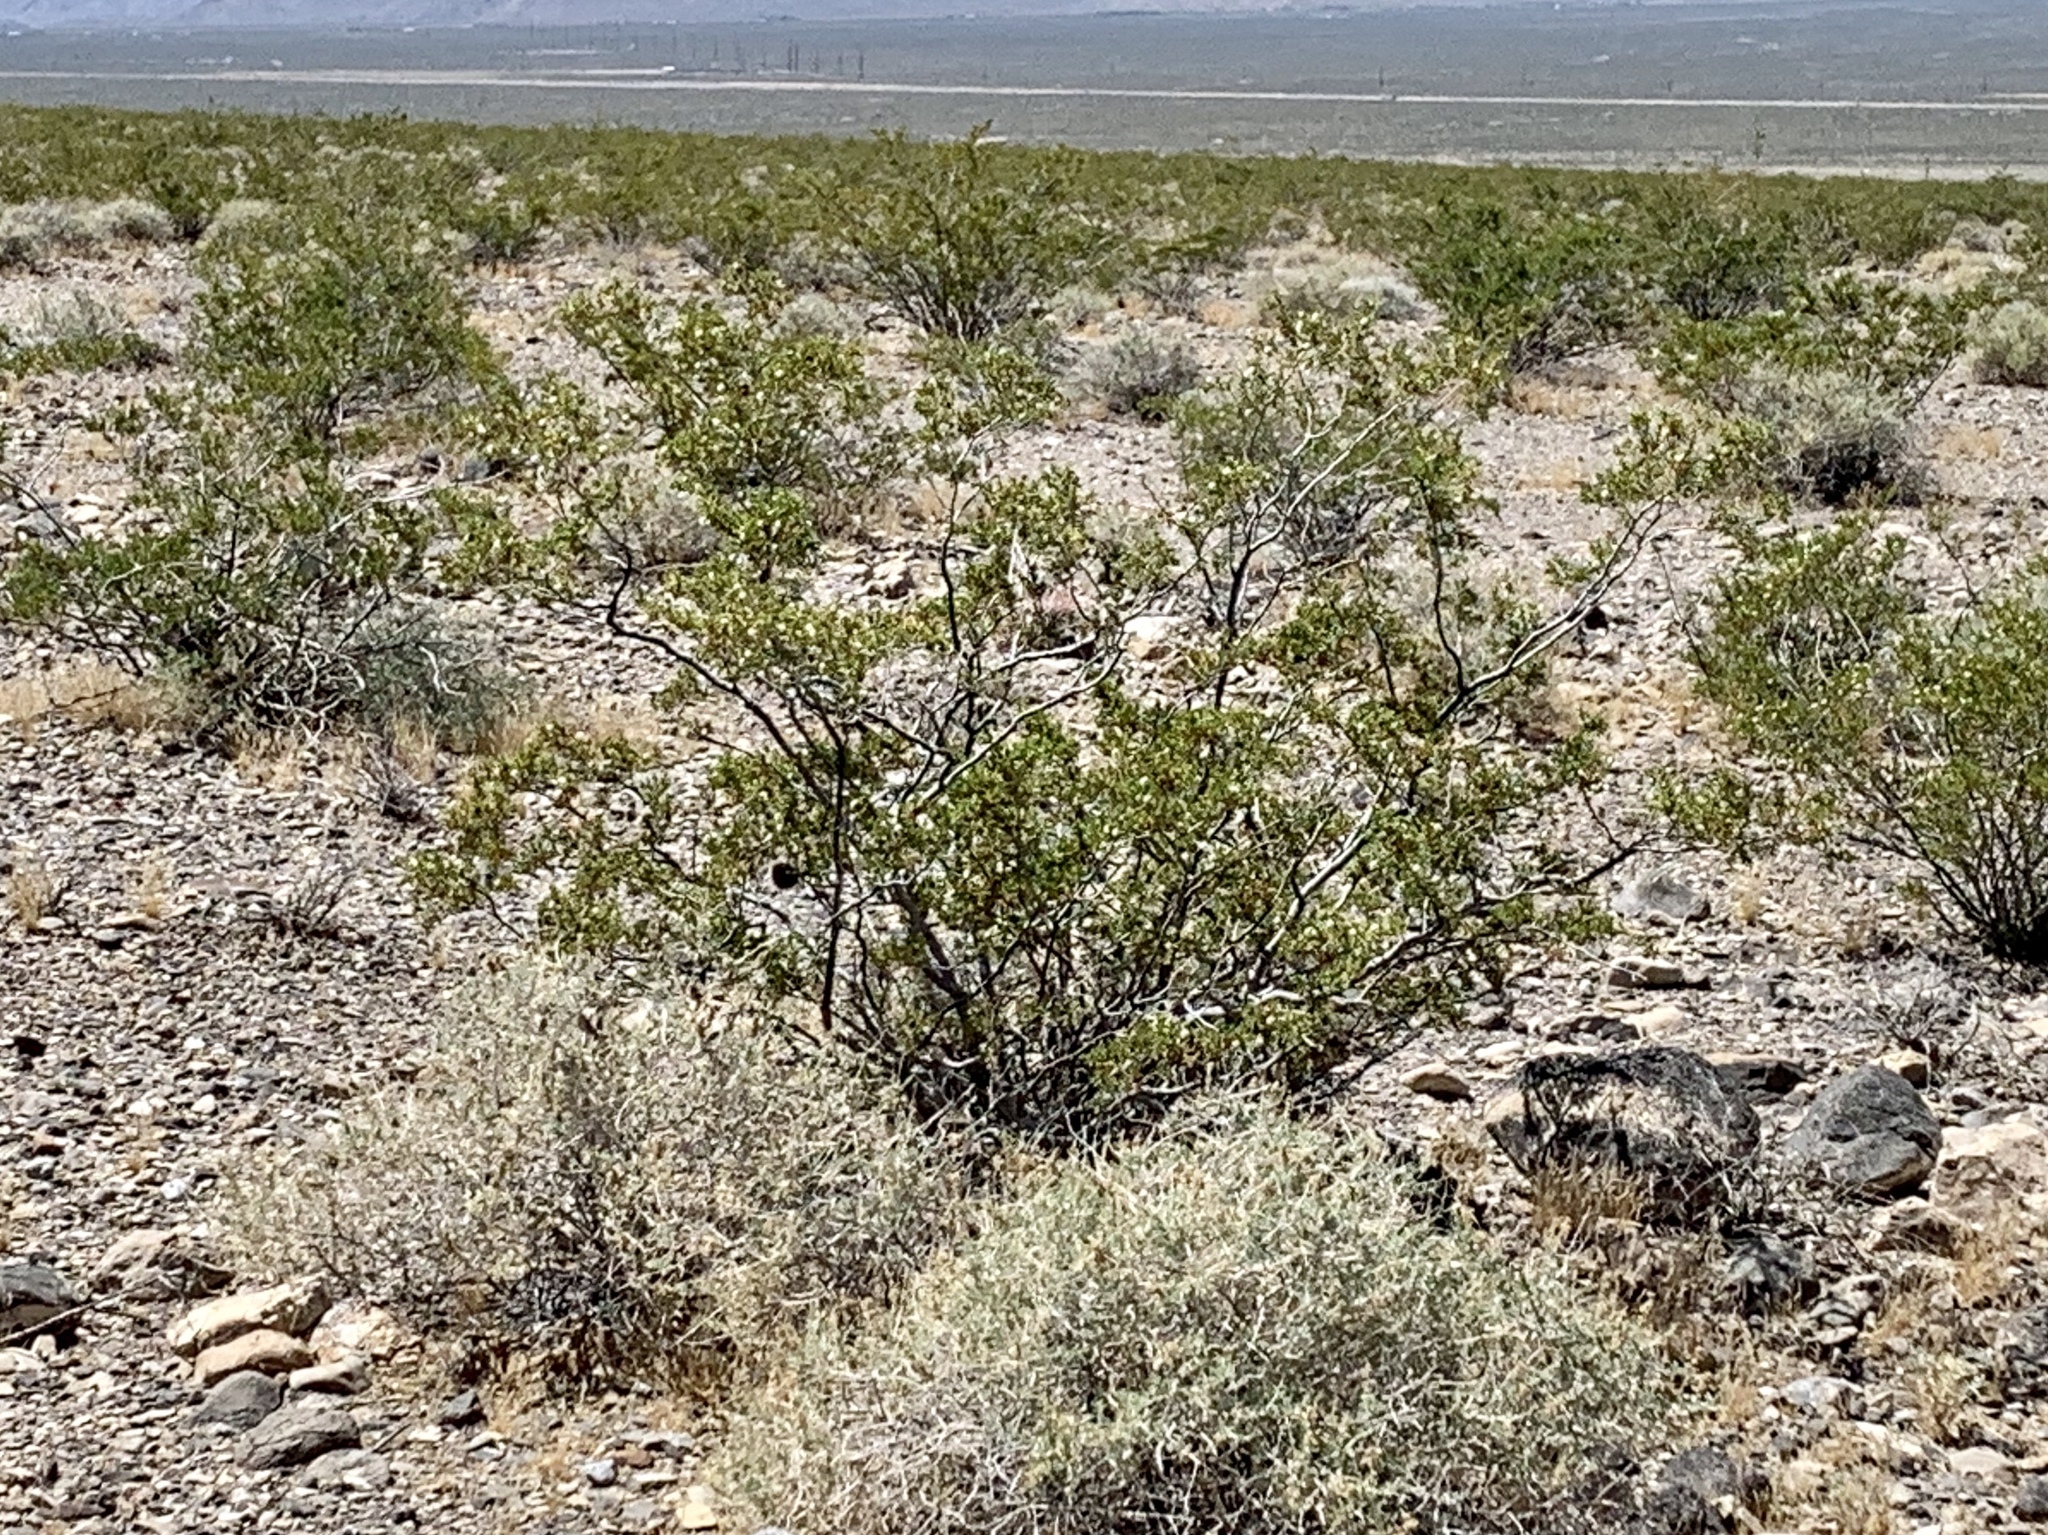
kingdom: Plantae
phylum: Tracheophyta
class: Magnoliopsida
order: Zygophyllales
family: Zygophyllaceae
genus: Larrea
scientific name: Larrea tridentata
